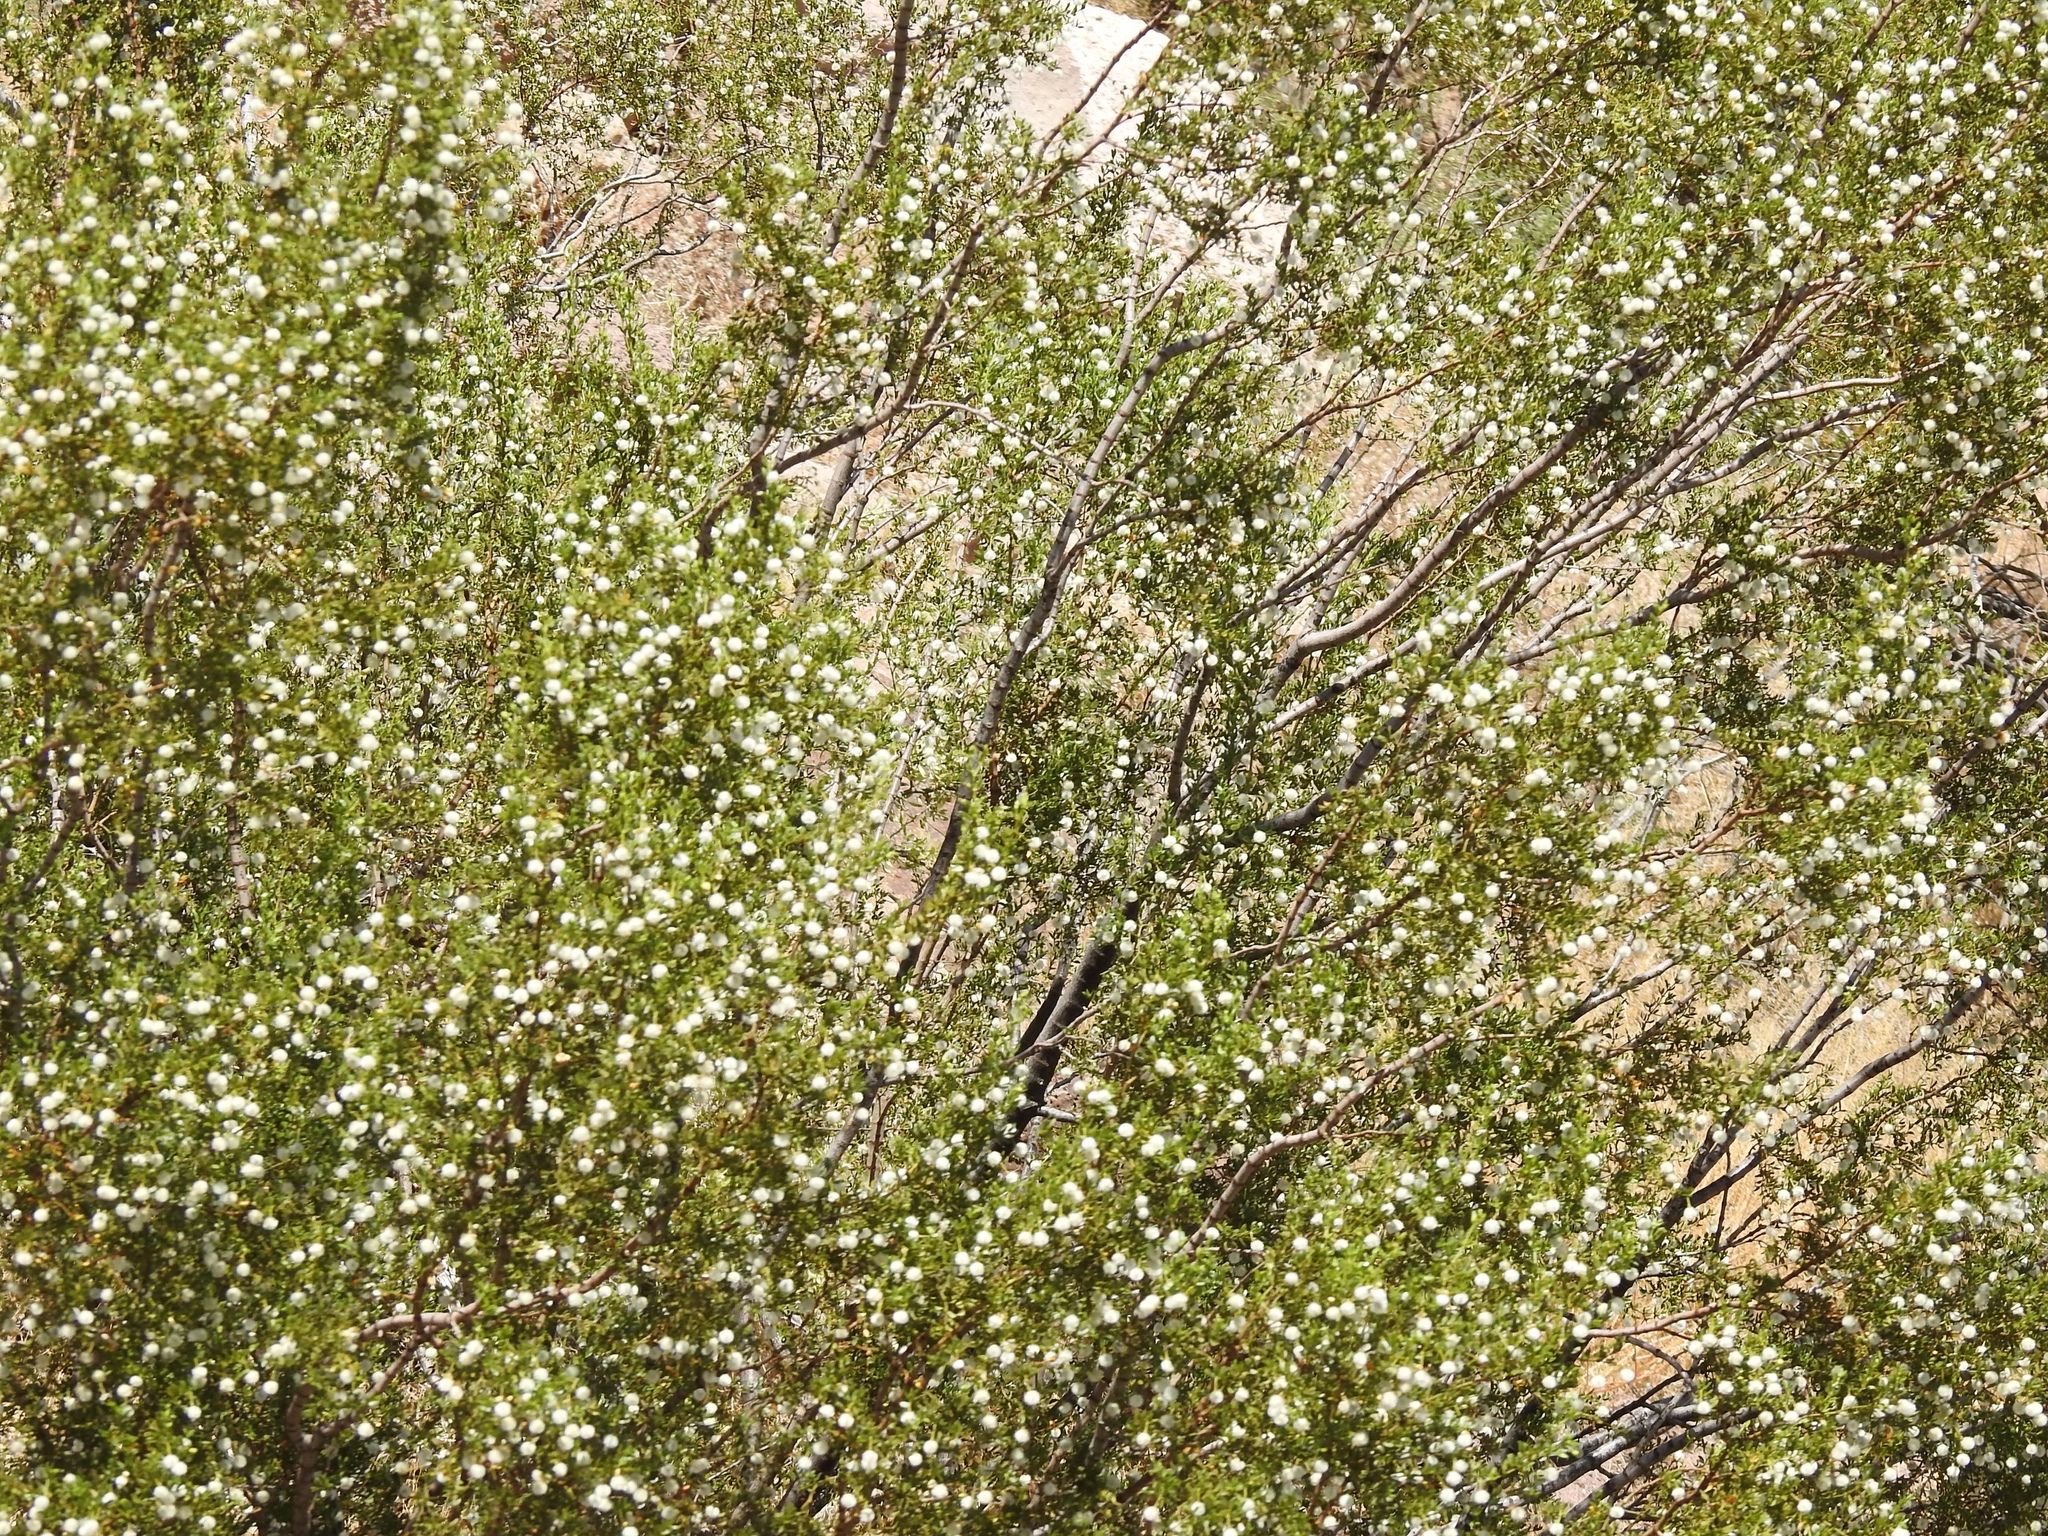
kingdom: Plantae
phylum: Tracheophyta
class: Magnoliopsida
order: Zygophyllales
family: Zygophyllaceae
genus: Larrea
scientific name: Larrea tridentata
